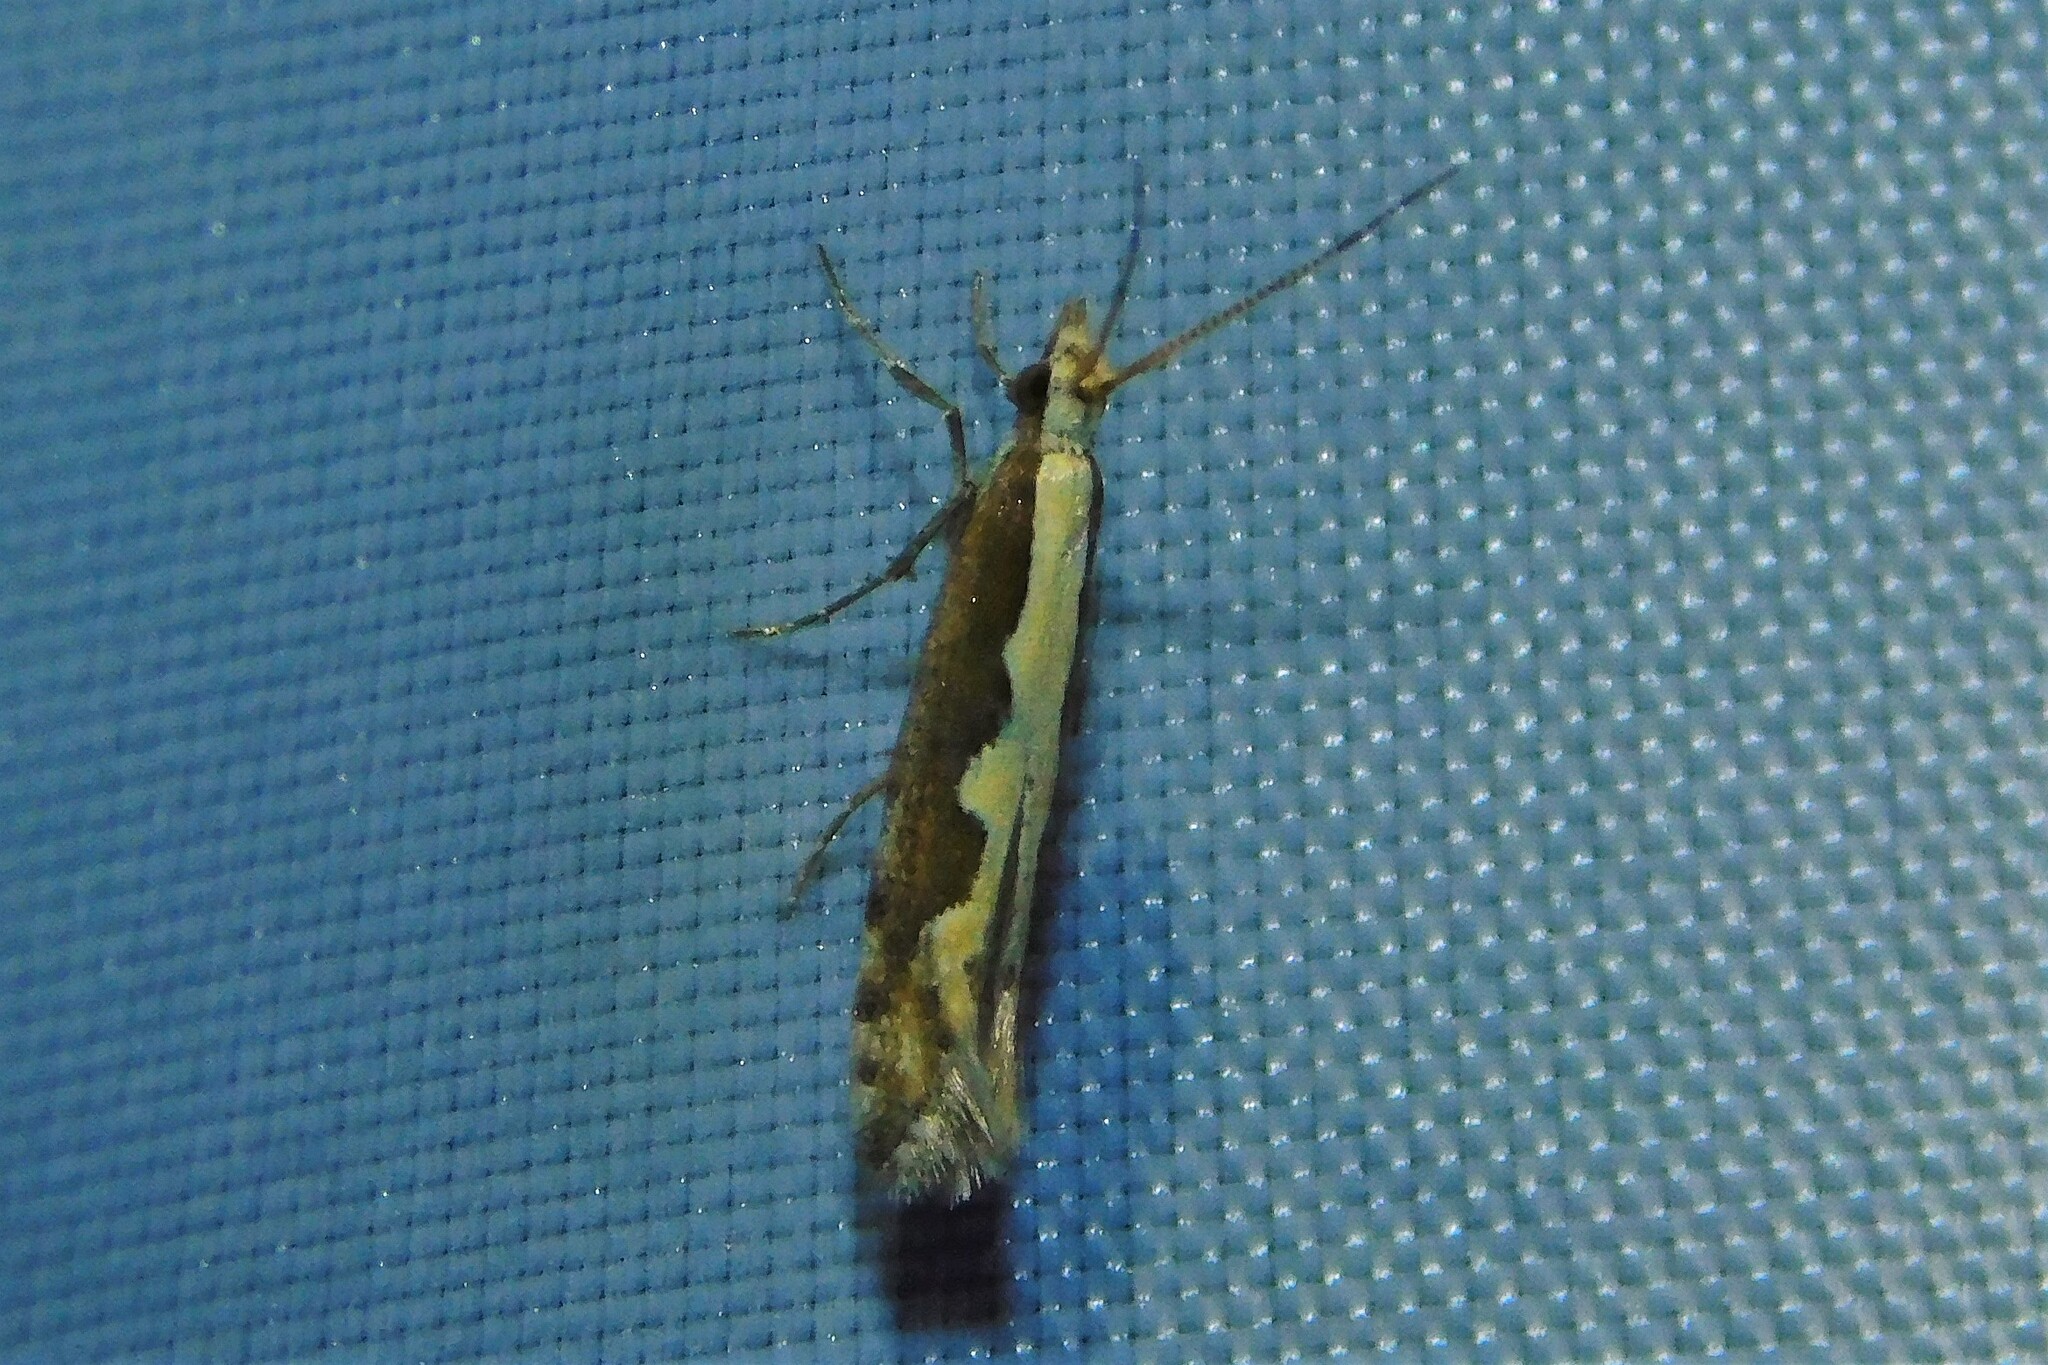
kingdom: Animalia
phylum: Arthropoda
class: Insecta
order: Lepidoptera
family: Plutellidae
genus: Plutella
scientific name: Plutella xylostella
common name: Diamond-back moth
